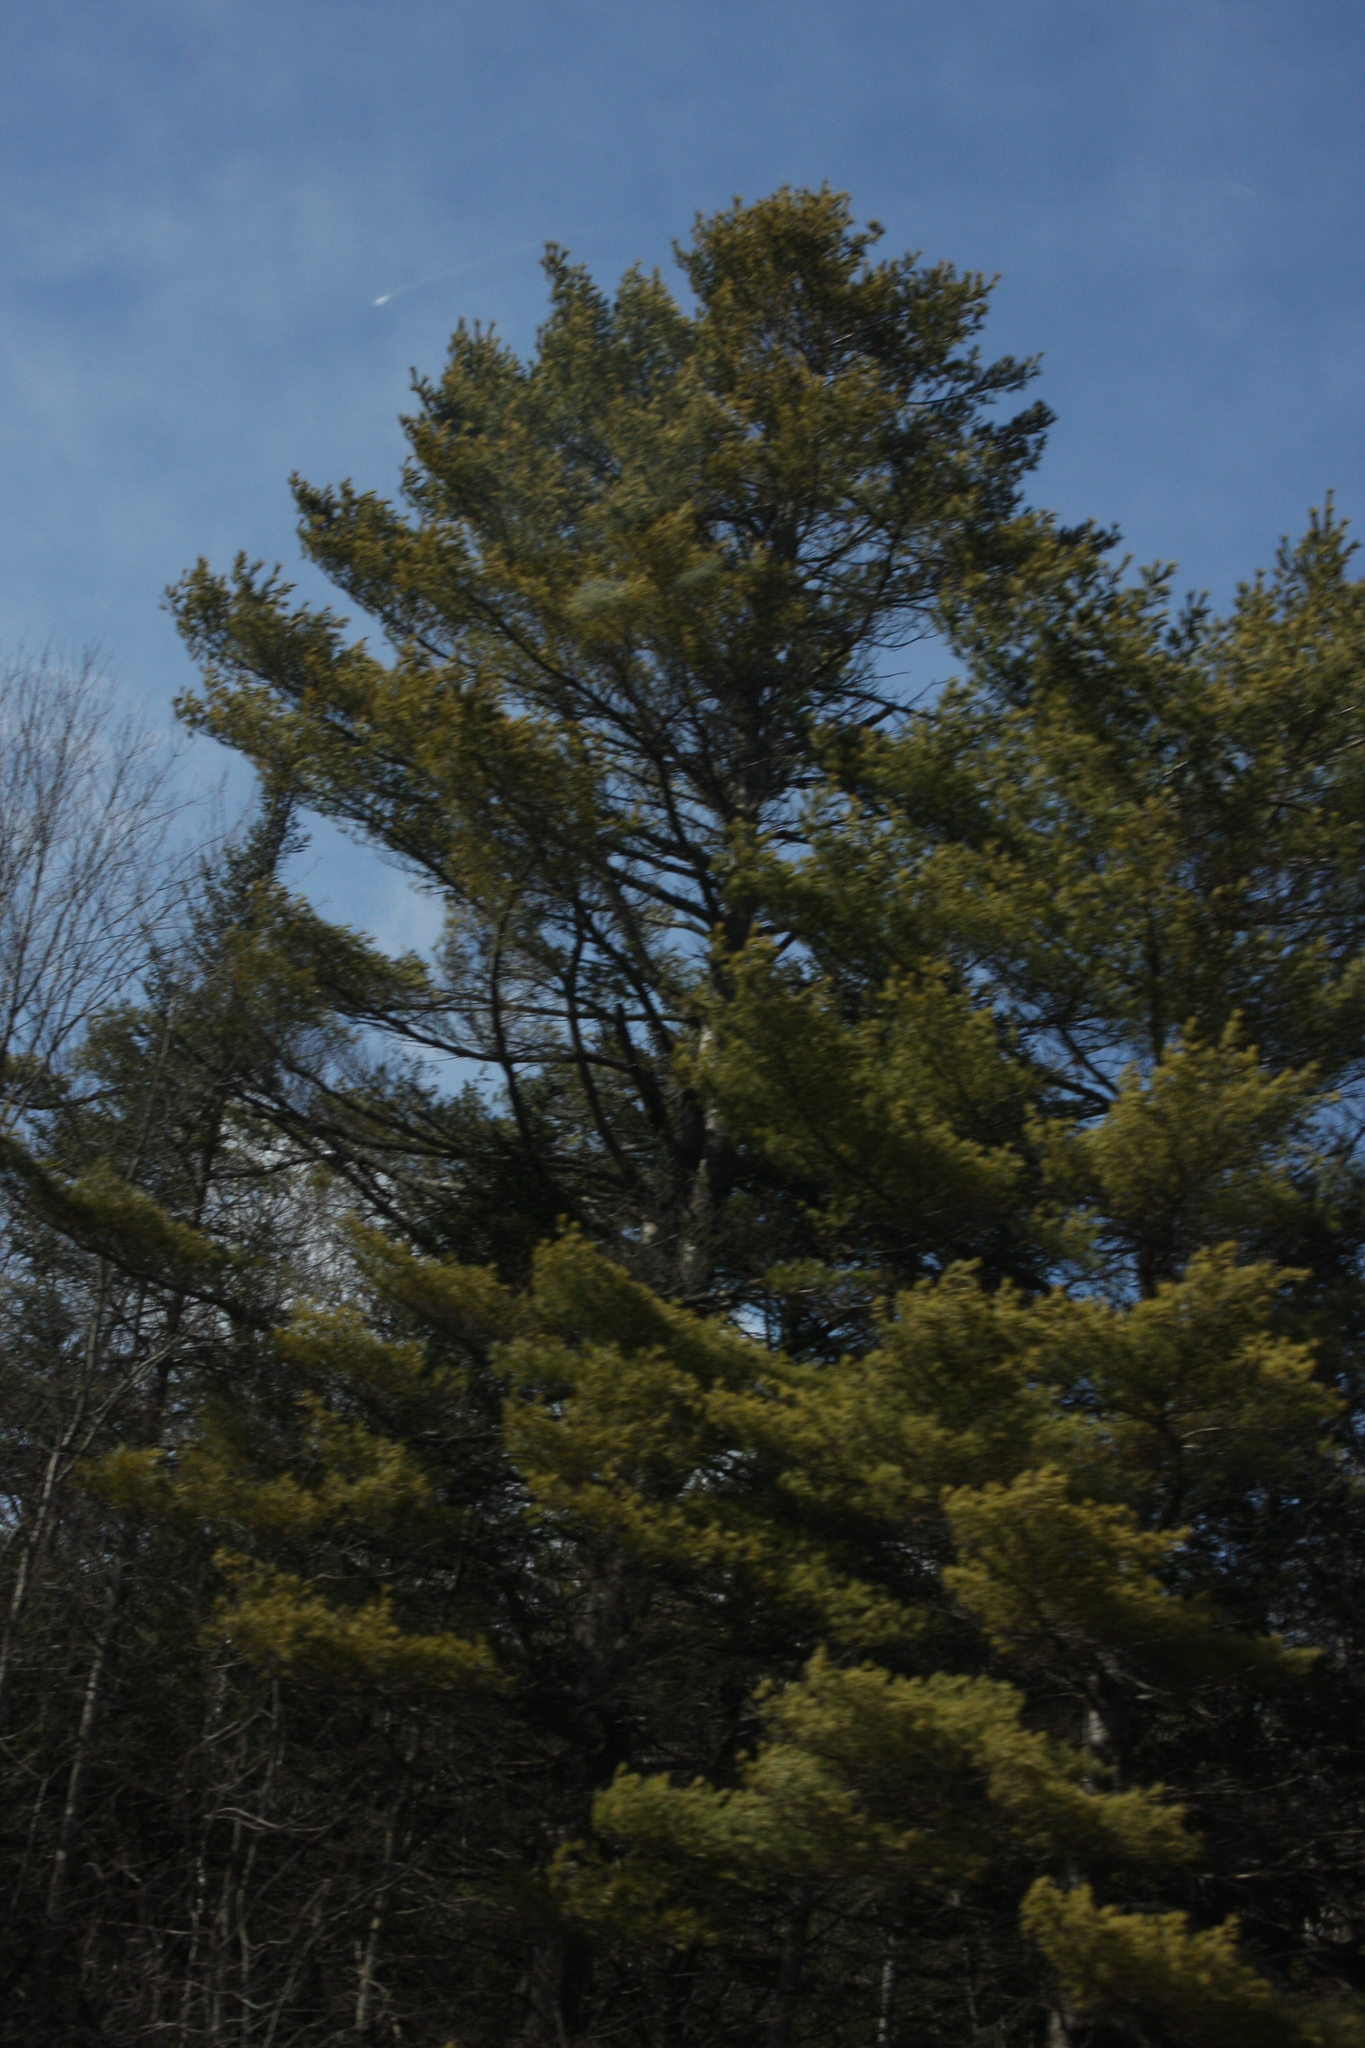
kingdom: Plantae
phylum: Tracheophyta
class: Pinopsida
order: Pinales
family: Pinaceae
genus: Pinus
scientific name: Pinus strobus
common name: Weymouth pine
